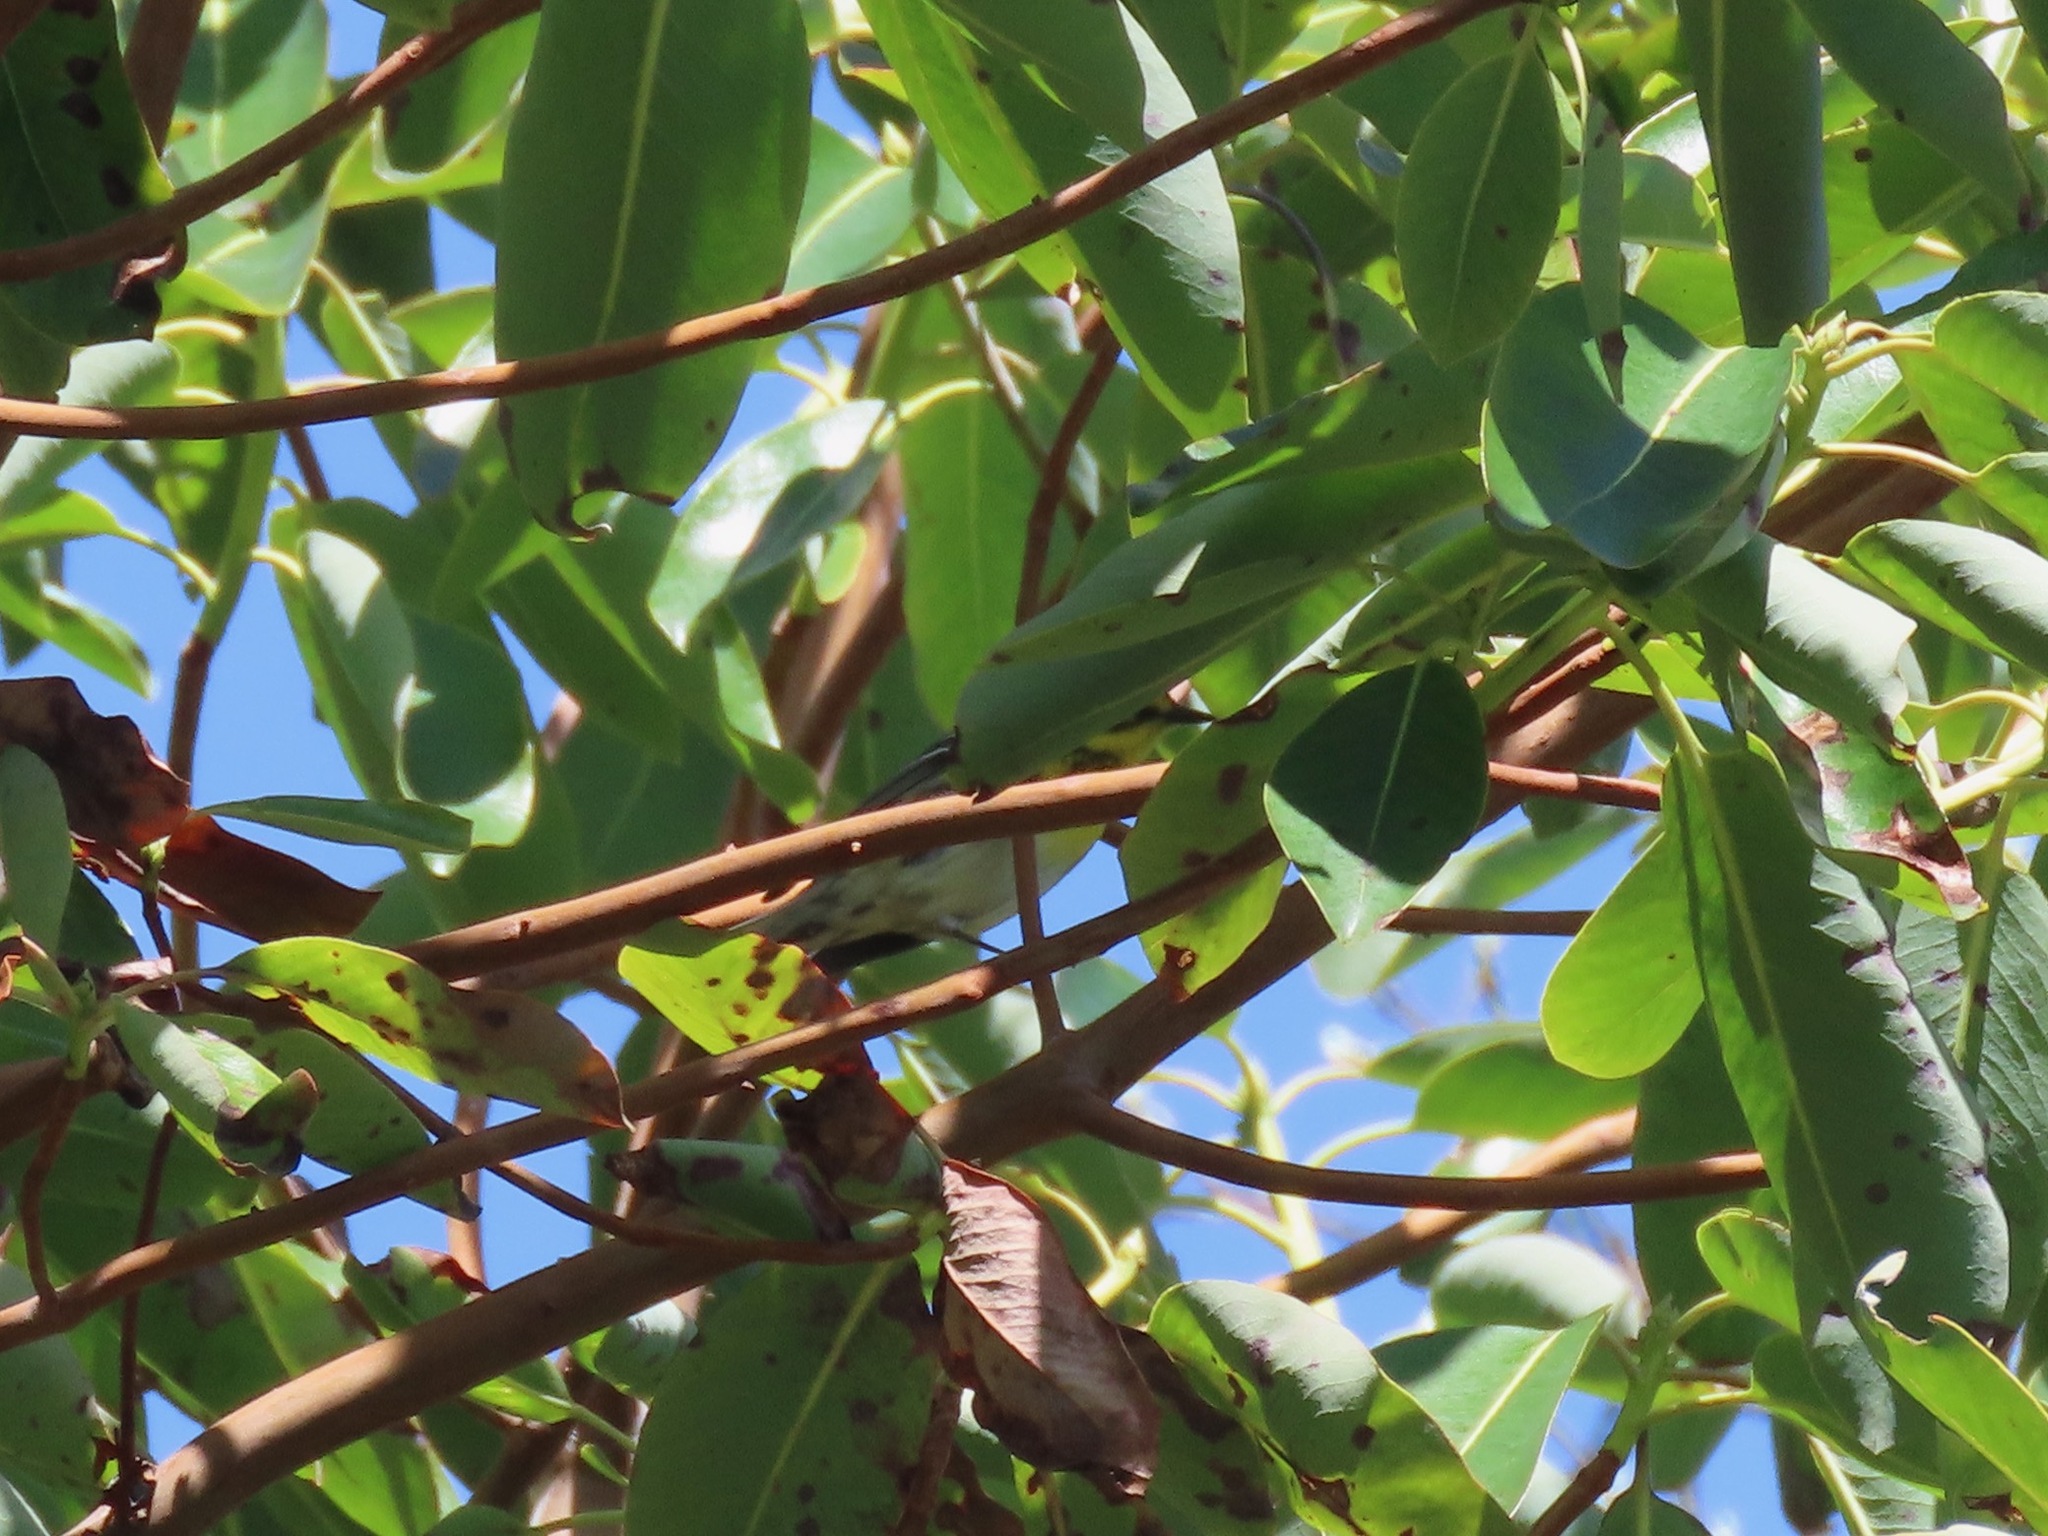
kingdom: Animalia
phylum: Chordata
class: Aves
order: Passeriformes
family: Parulidae
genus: Setophaga
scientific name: Setophaga townsendi
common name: Townsend's warbler
